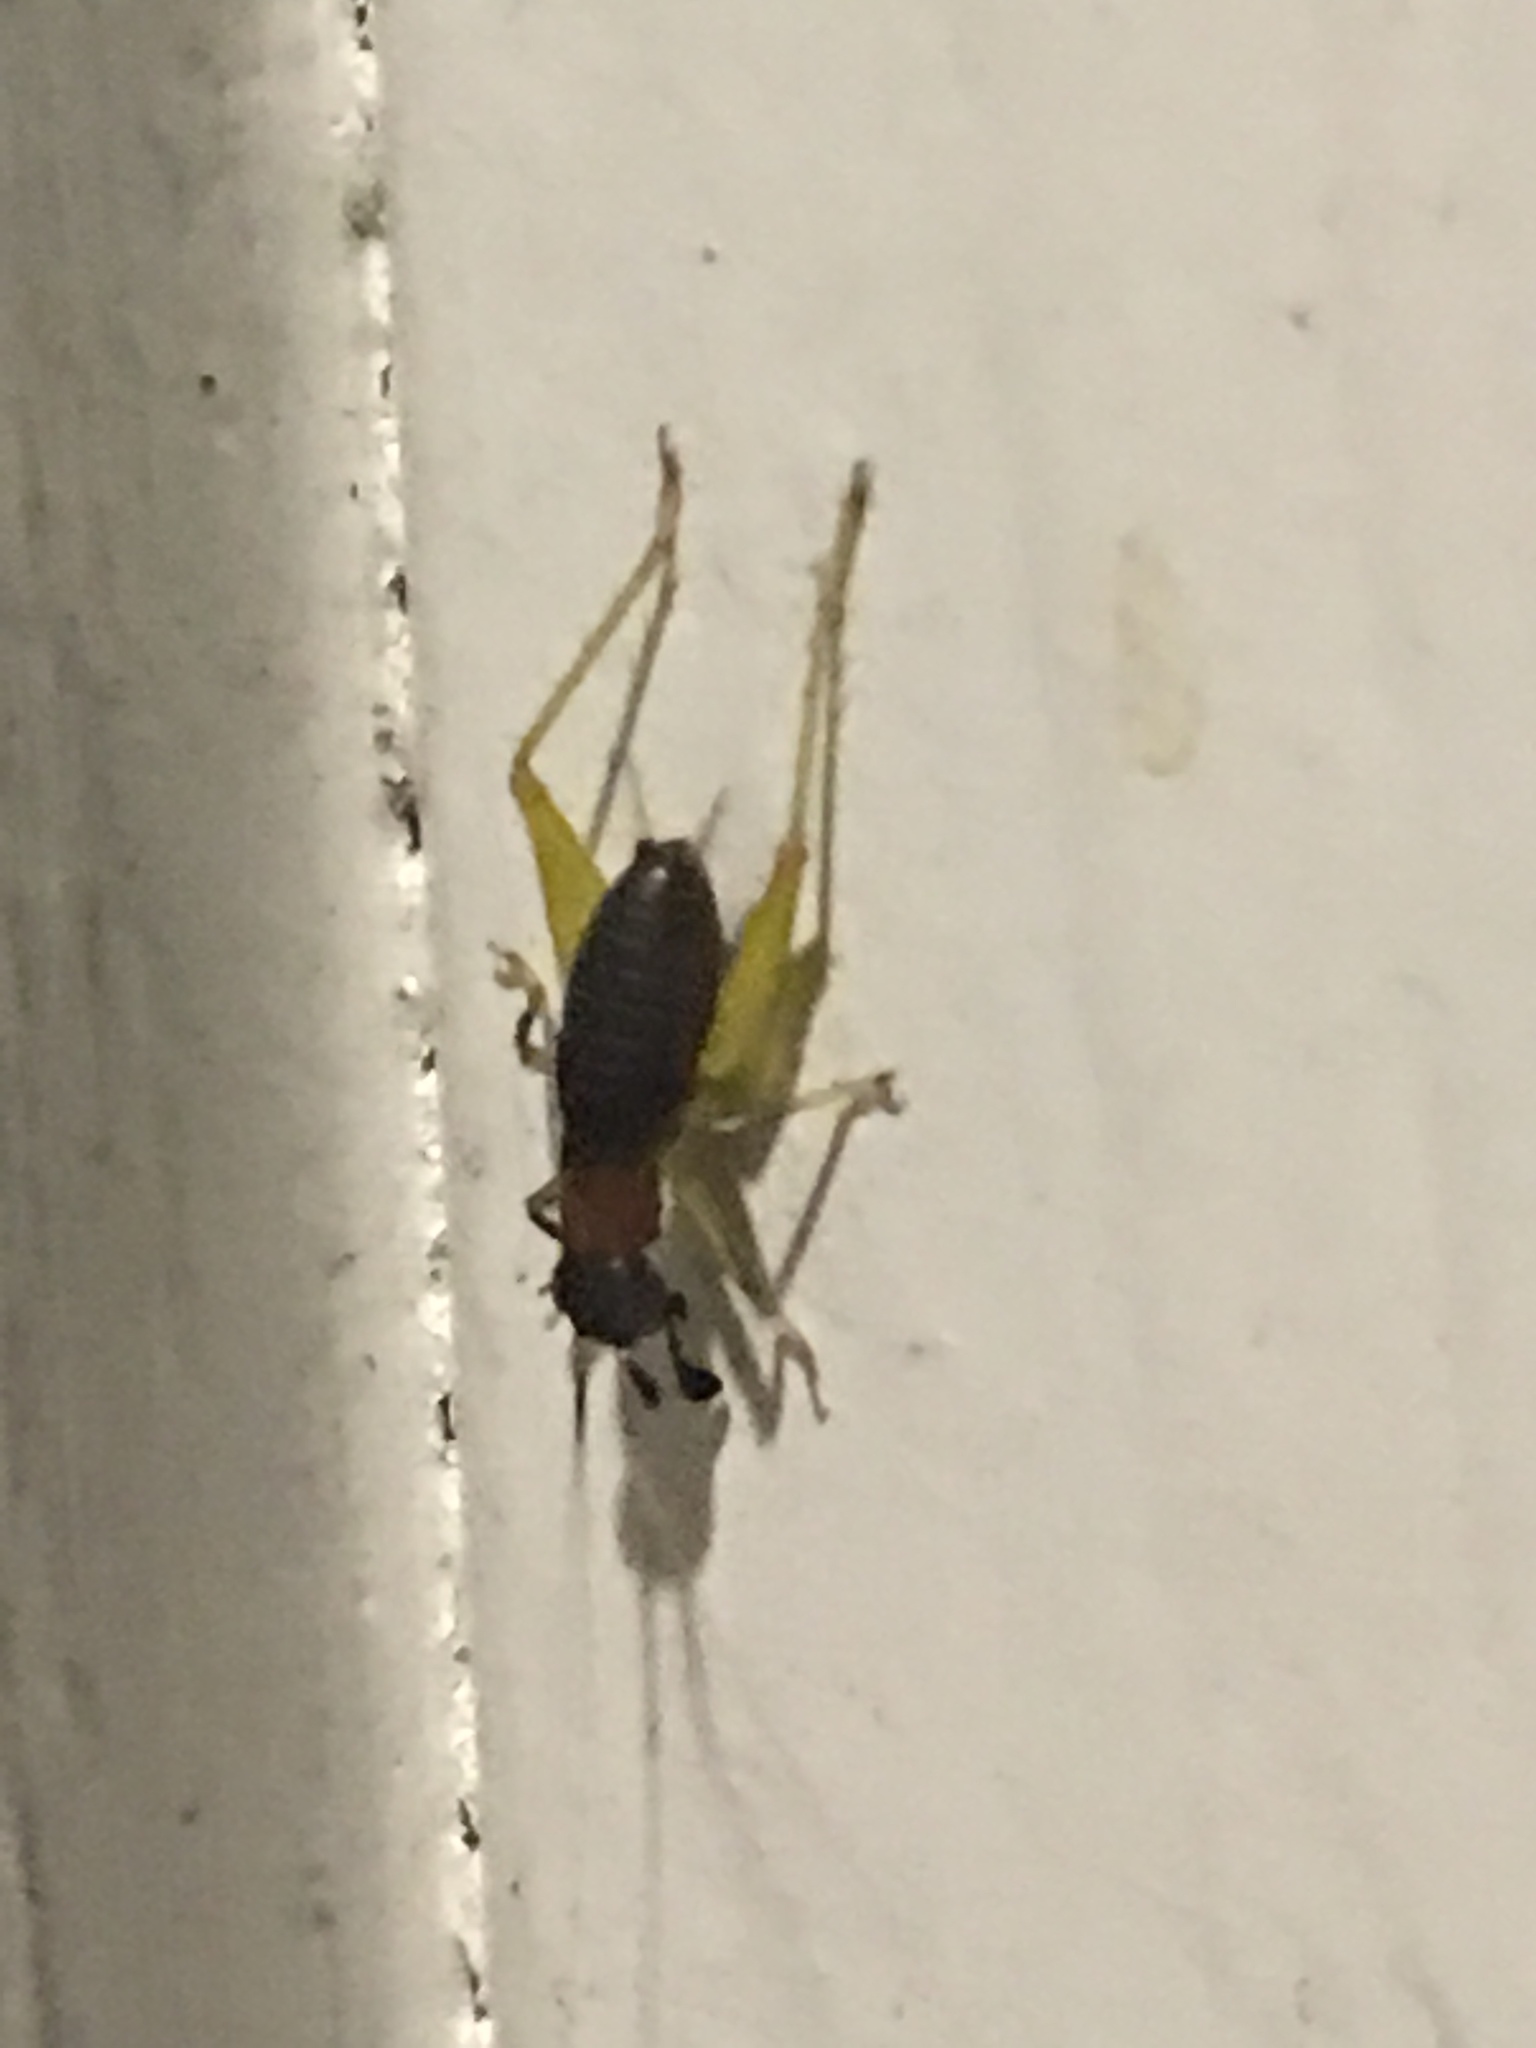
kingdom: Animalia
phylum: Arthropoda
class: Insecta
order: Orthoptera
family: Trigonidiidae
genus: Phyllopalpus
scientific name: Phyllopalpus pulchellus
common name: Handsome trig
